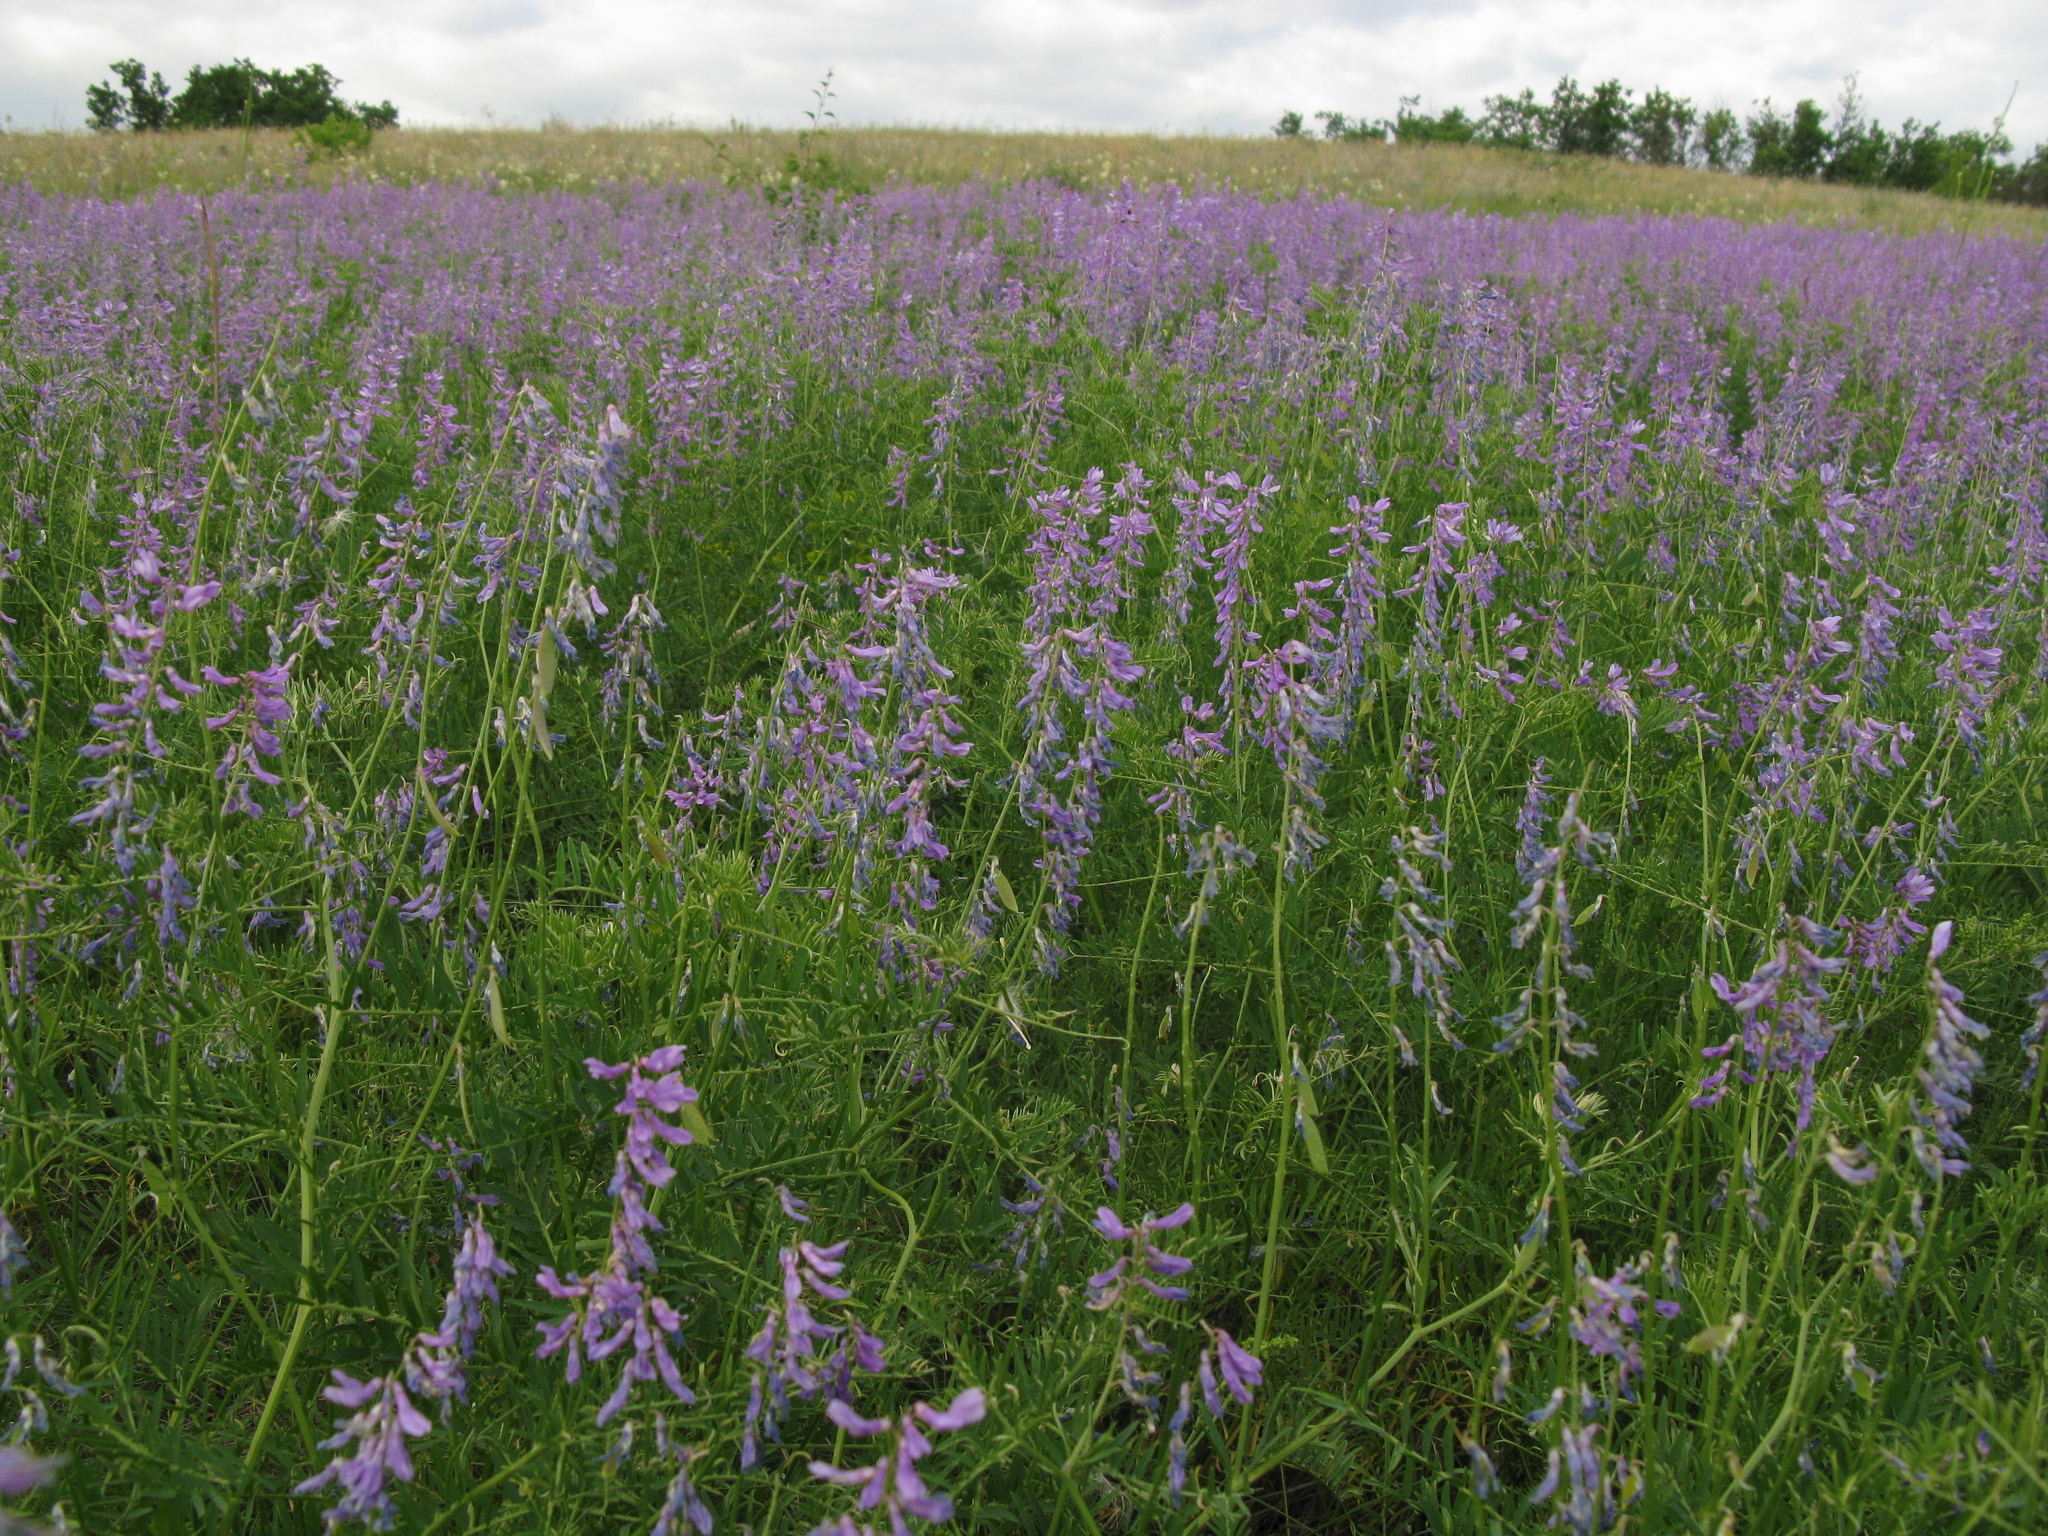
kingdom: Plantae
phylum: Tracheophyta
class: Magnoliopsida
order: Fabales
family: Fabaceae
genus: Vicia
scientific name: Vicia tenuifolia
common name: Fine-leaved vetch
